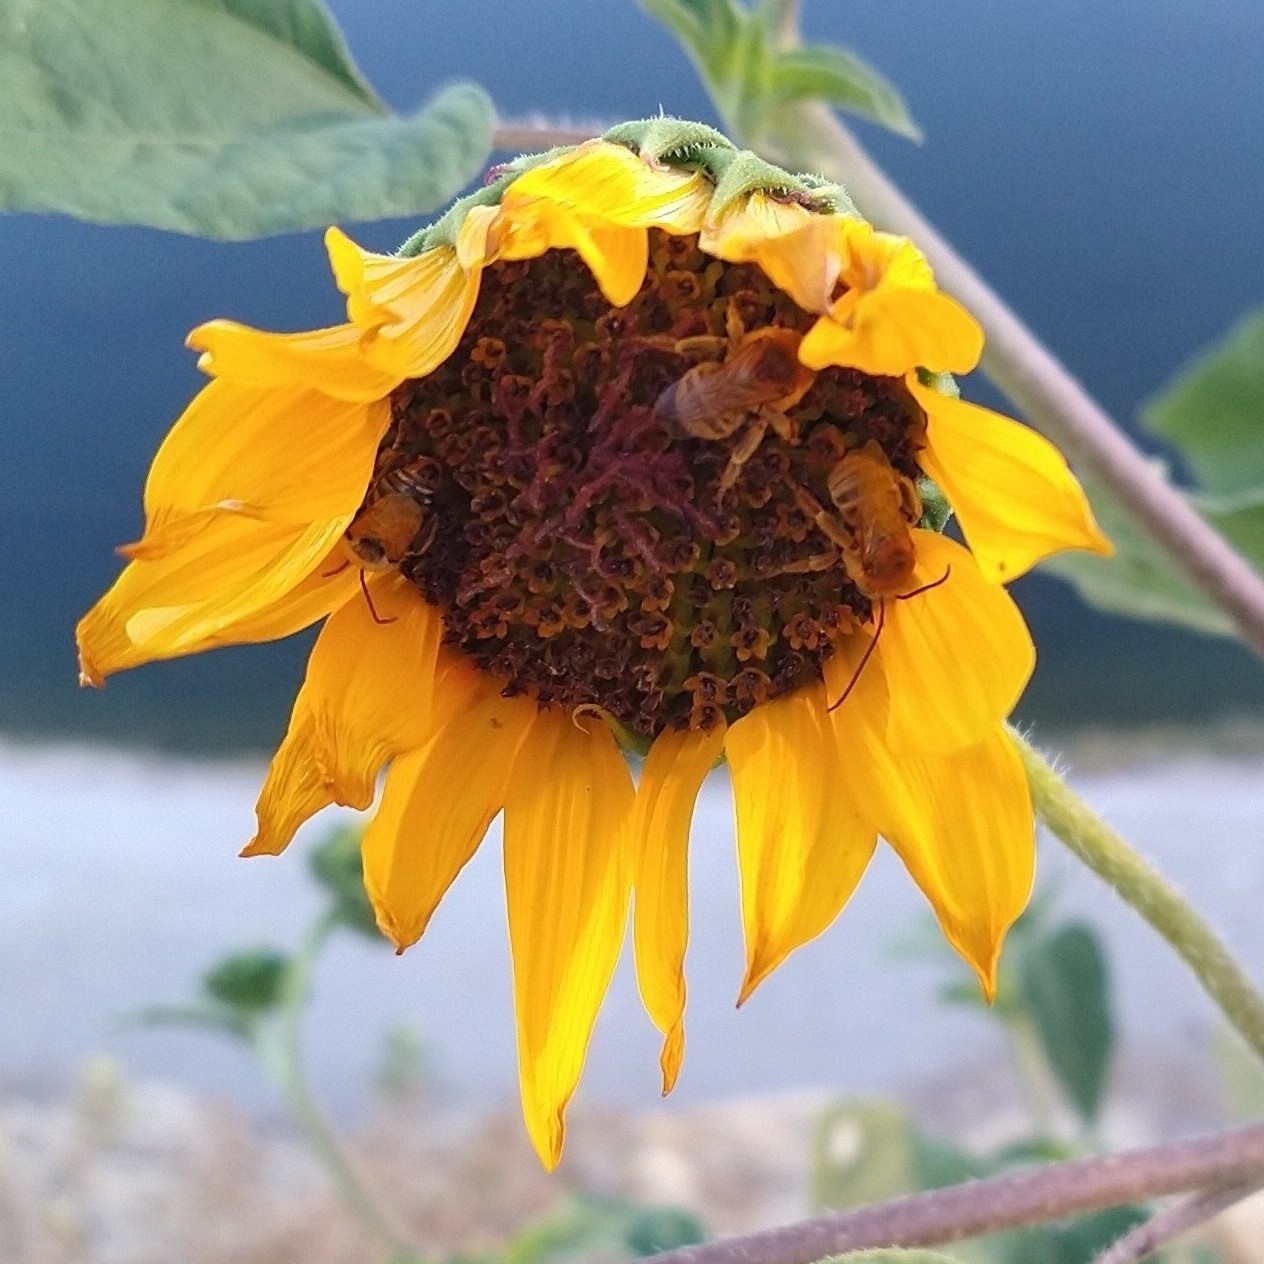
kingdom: Animalia
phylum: Arthropoda
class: Insecta
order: Hymenoptera
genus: Eumelissodes
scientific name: Eumelissodes
